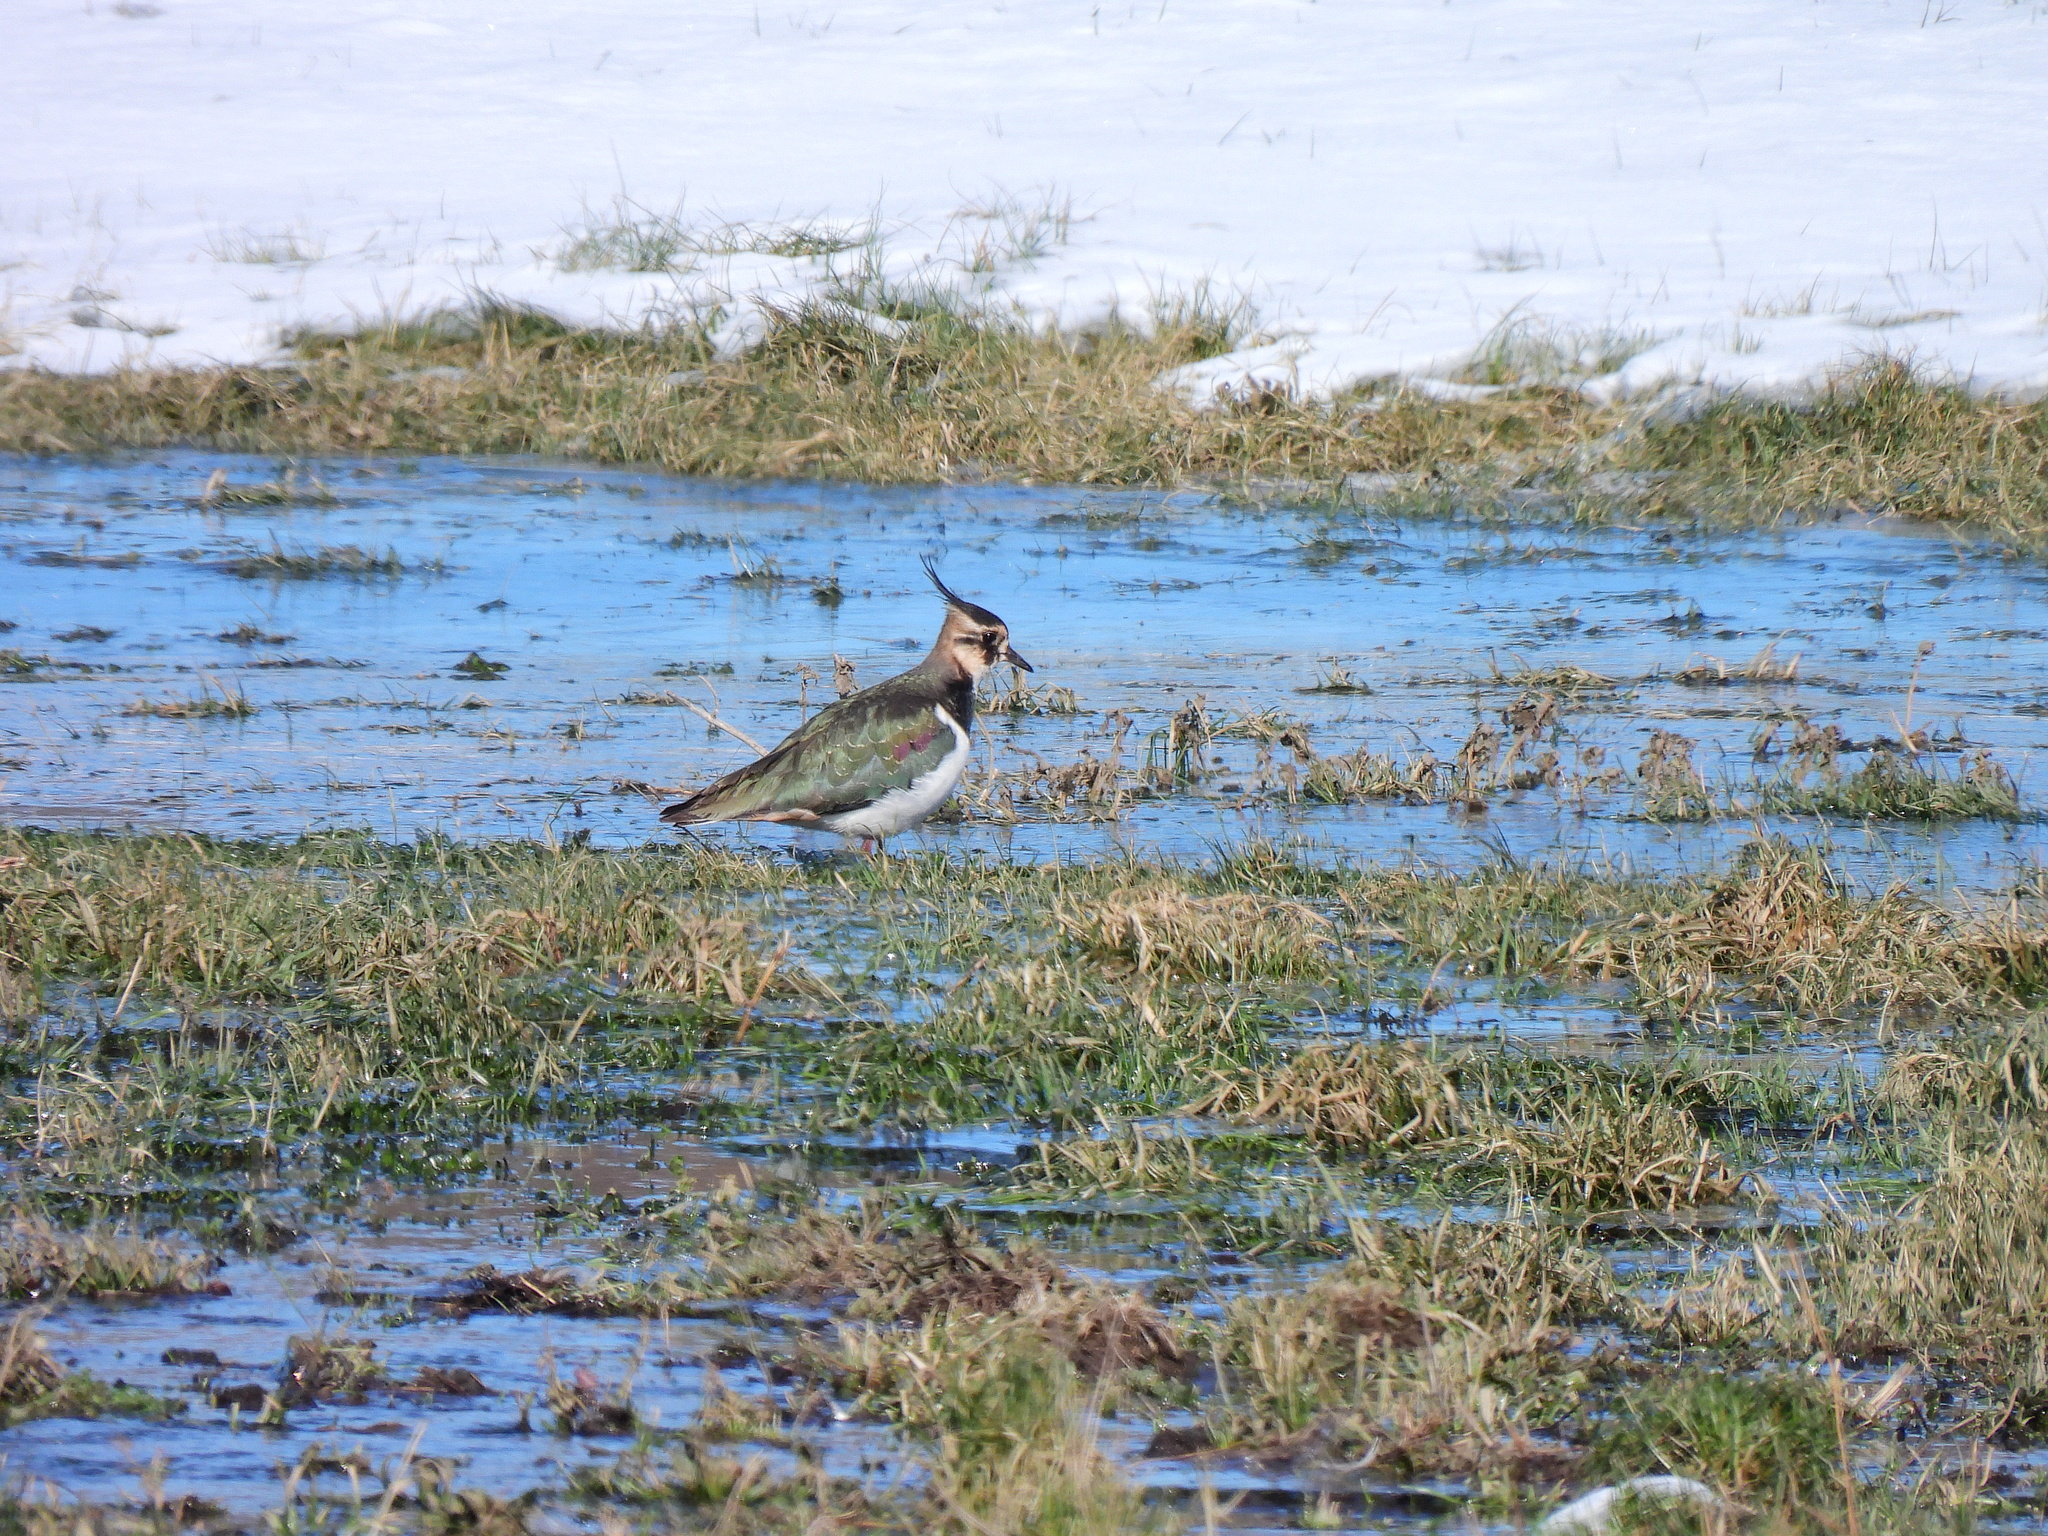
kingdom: Animalia
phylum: Chordata
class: Aves
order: Charadriiformes
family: Charadriidae
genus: Vanellus
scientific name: Vanellus vanellus
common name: Northern lapwing
